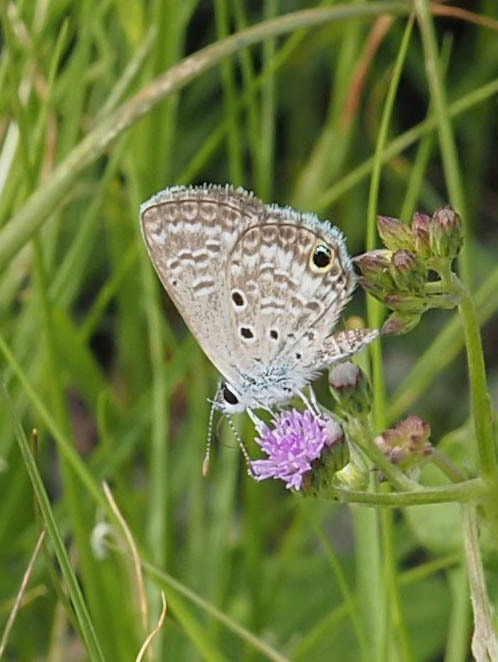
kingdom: Animalia
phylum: Arthropoda
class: Insecta
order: Lepidoptera
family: Lycaenidae
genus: Hemiargus
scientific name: Hemiargus ceraunus
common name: Ceraunus blue
